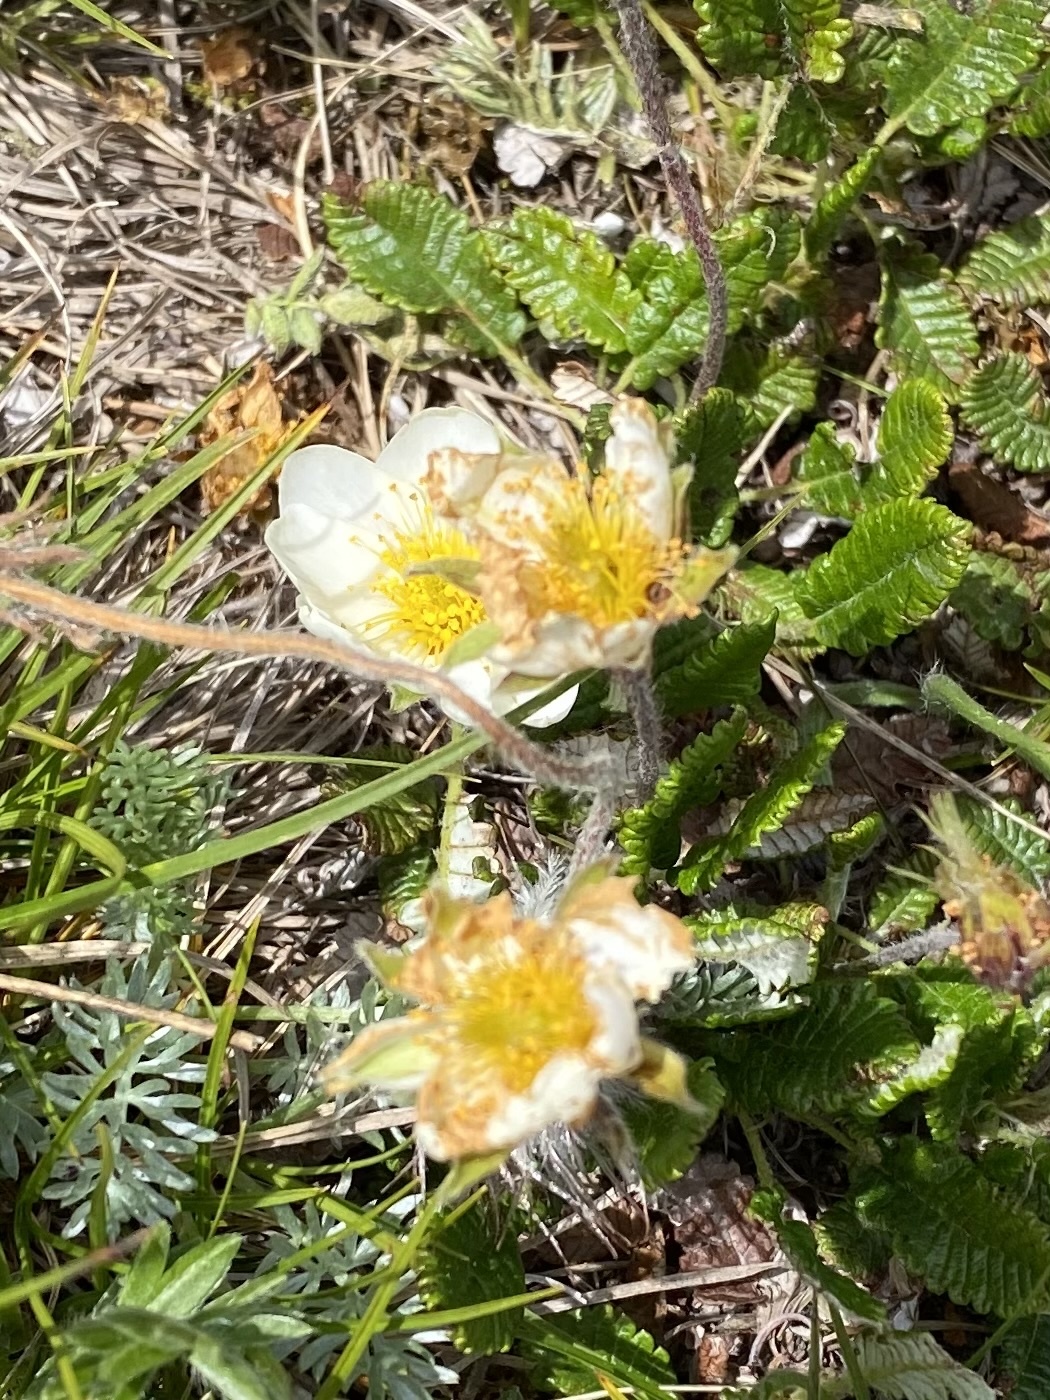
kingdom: Plantae
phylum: Tracheophyta
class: Magnoliopsida
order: Rosales
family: Rosaceae
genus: Dryas
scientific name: Dryas octopetala
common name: Eight-petal mountain-avens
